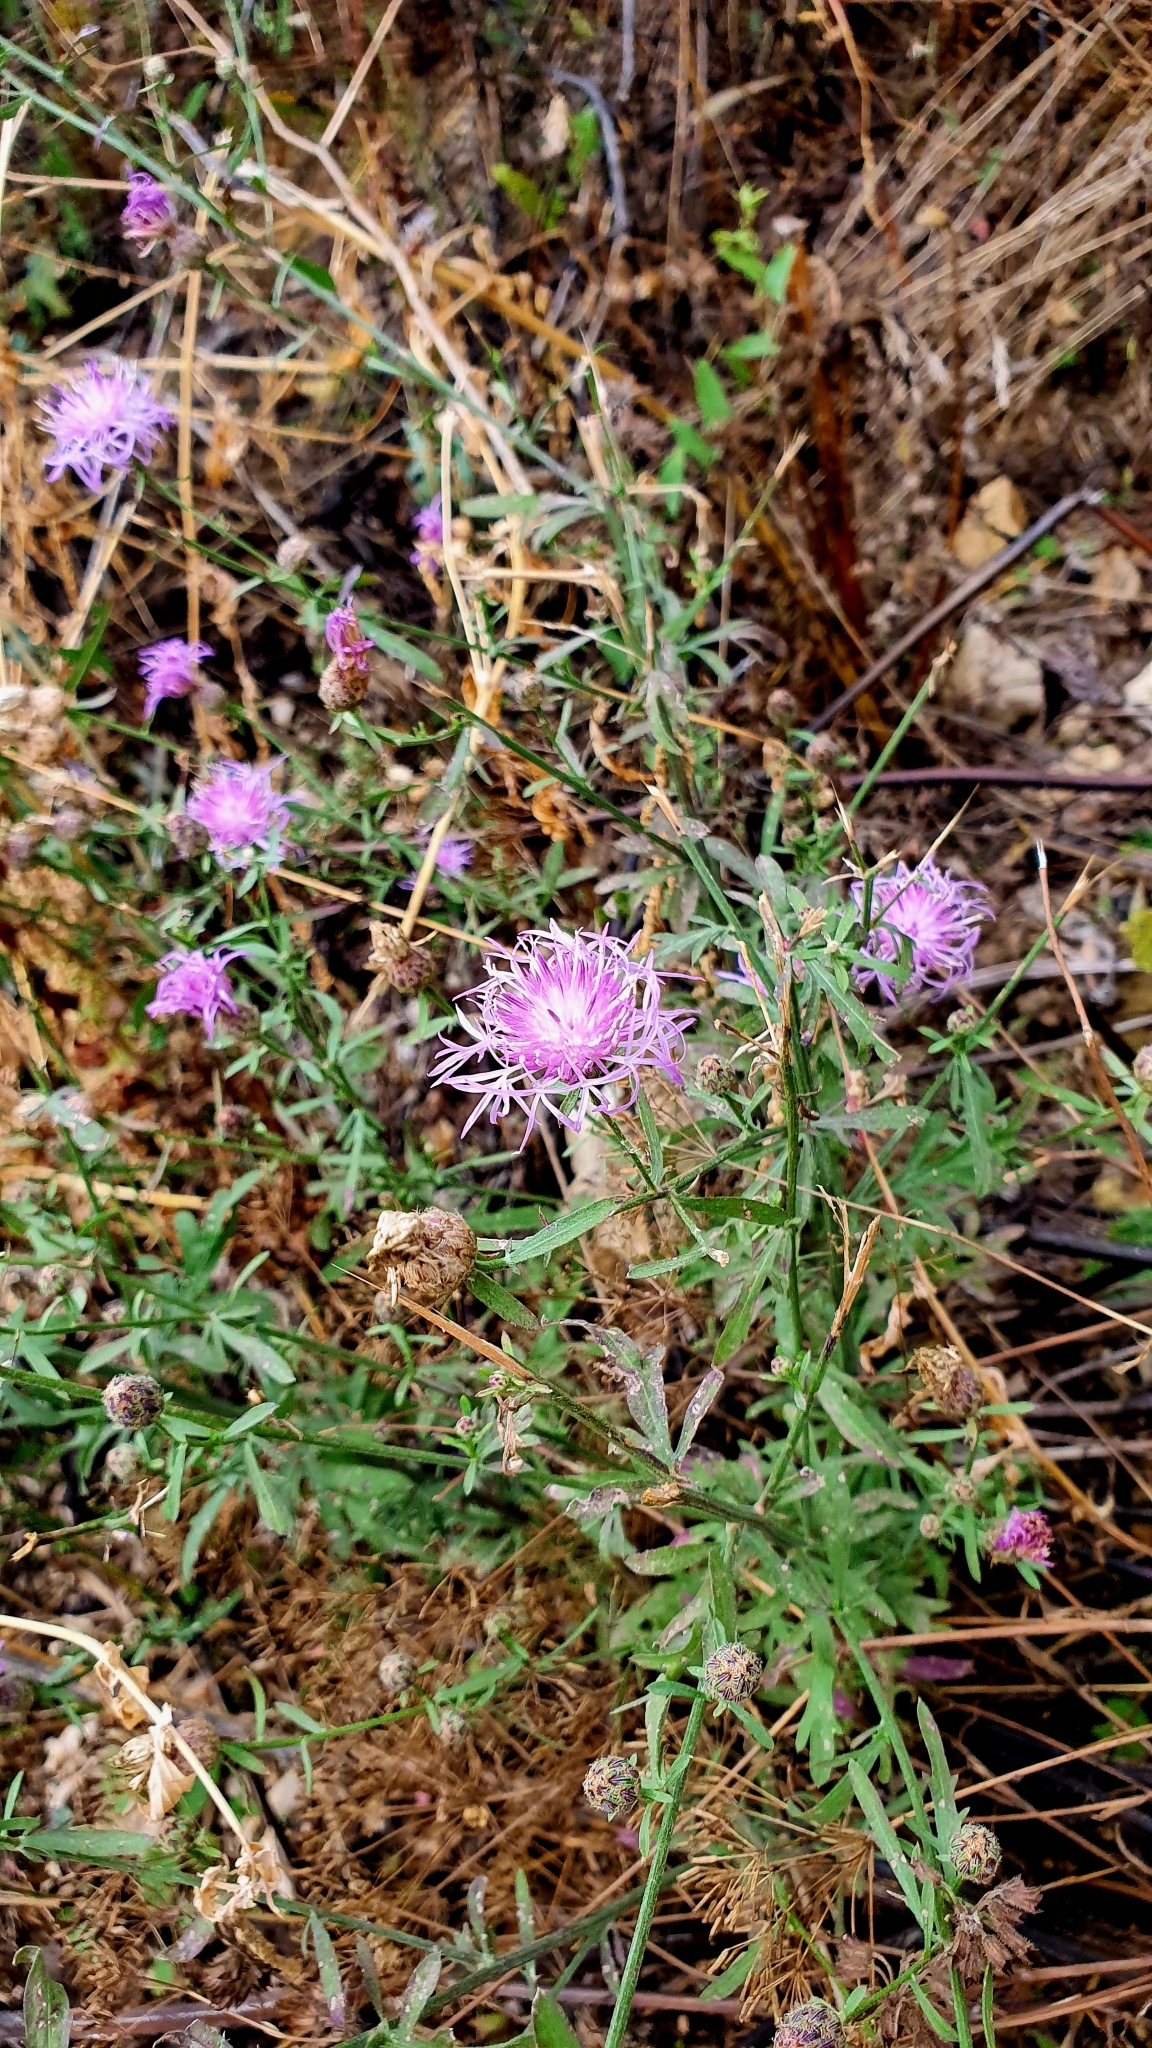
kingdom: Plantae
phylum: Tracheophyta
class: Magnoliopsida
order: Asterales
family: Asteraceae
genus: Centaurea
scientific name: Centaurea stoebe
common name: Spotted knapweed
